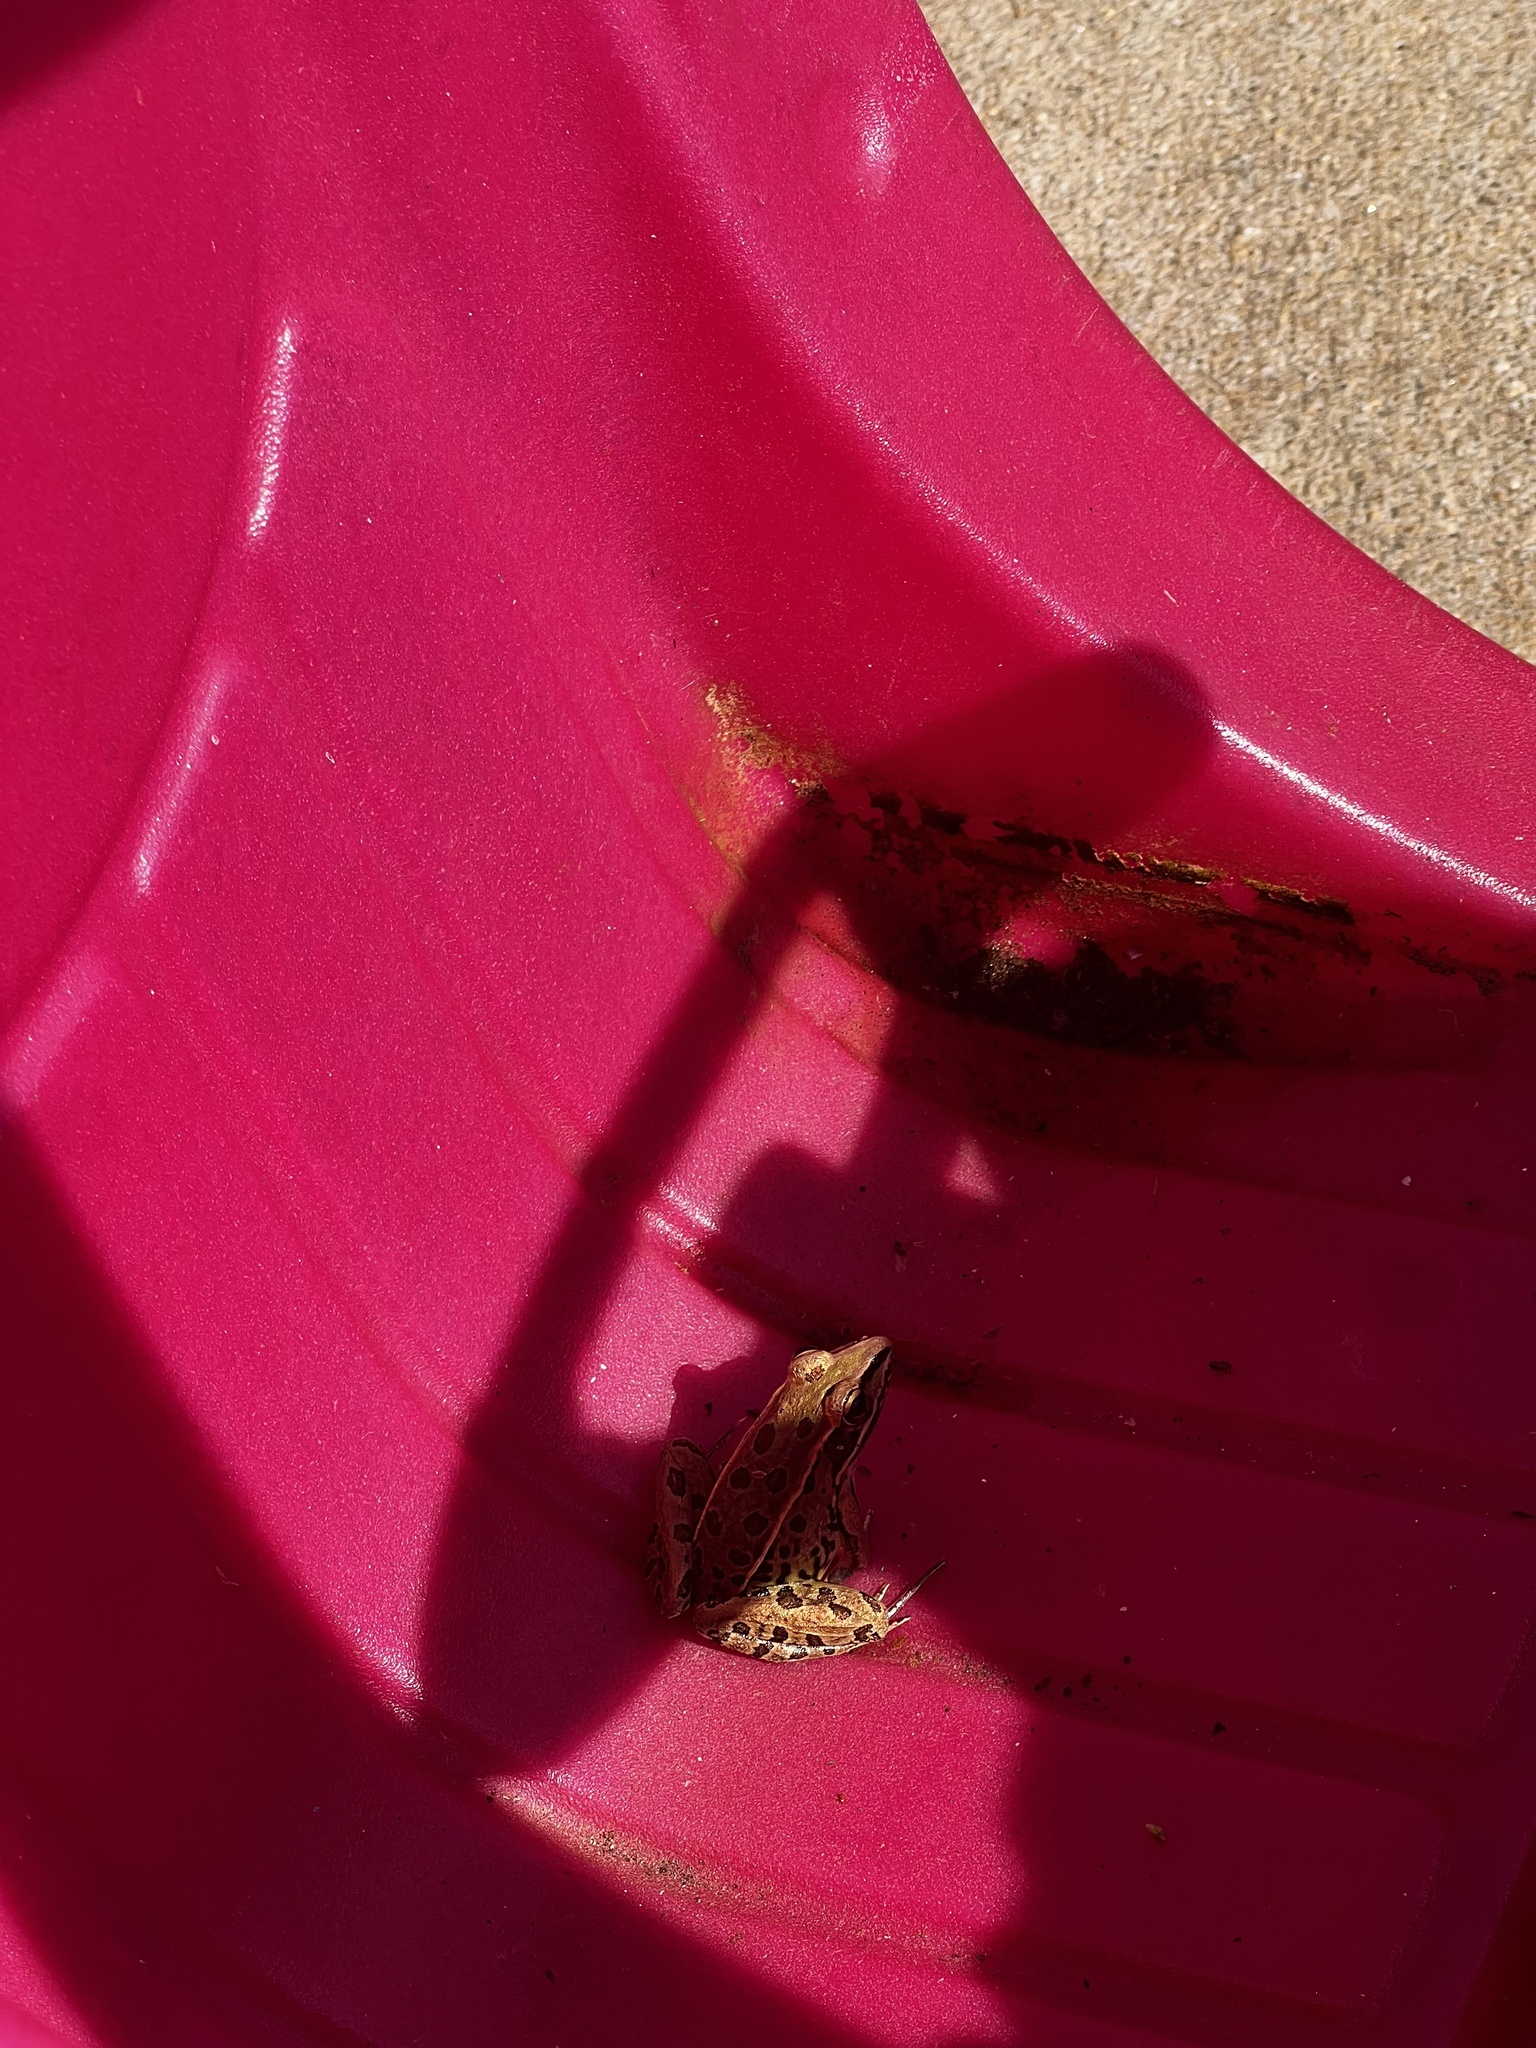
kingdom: Animalia
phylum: Chordata
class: Amphibia
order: Anura
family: Ranidae
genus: Lithobates
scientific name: Lithobates sphenocephalus
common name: Southern leopard frog
